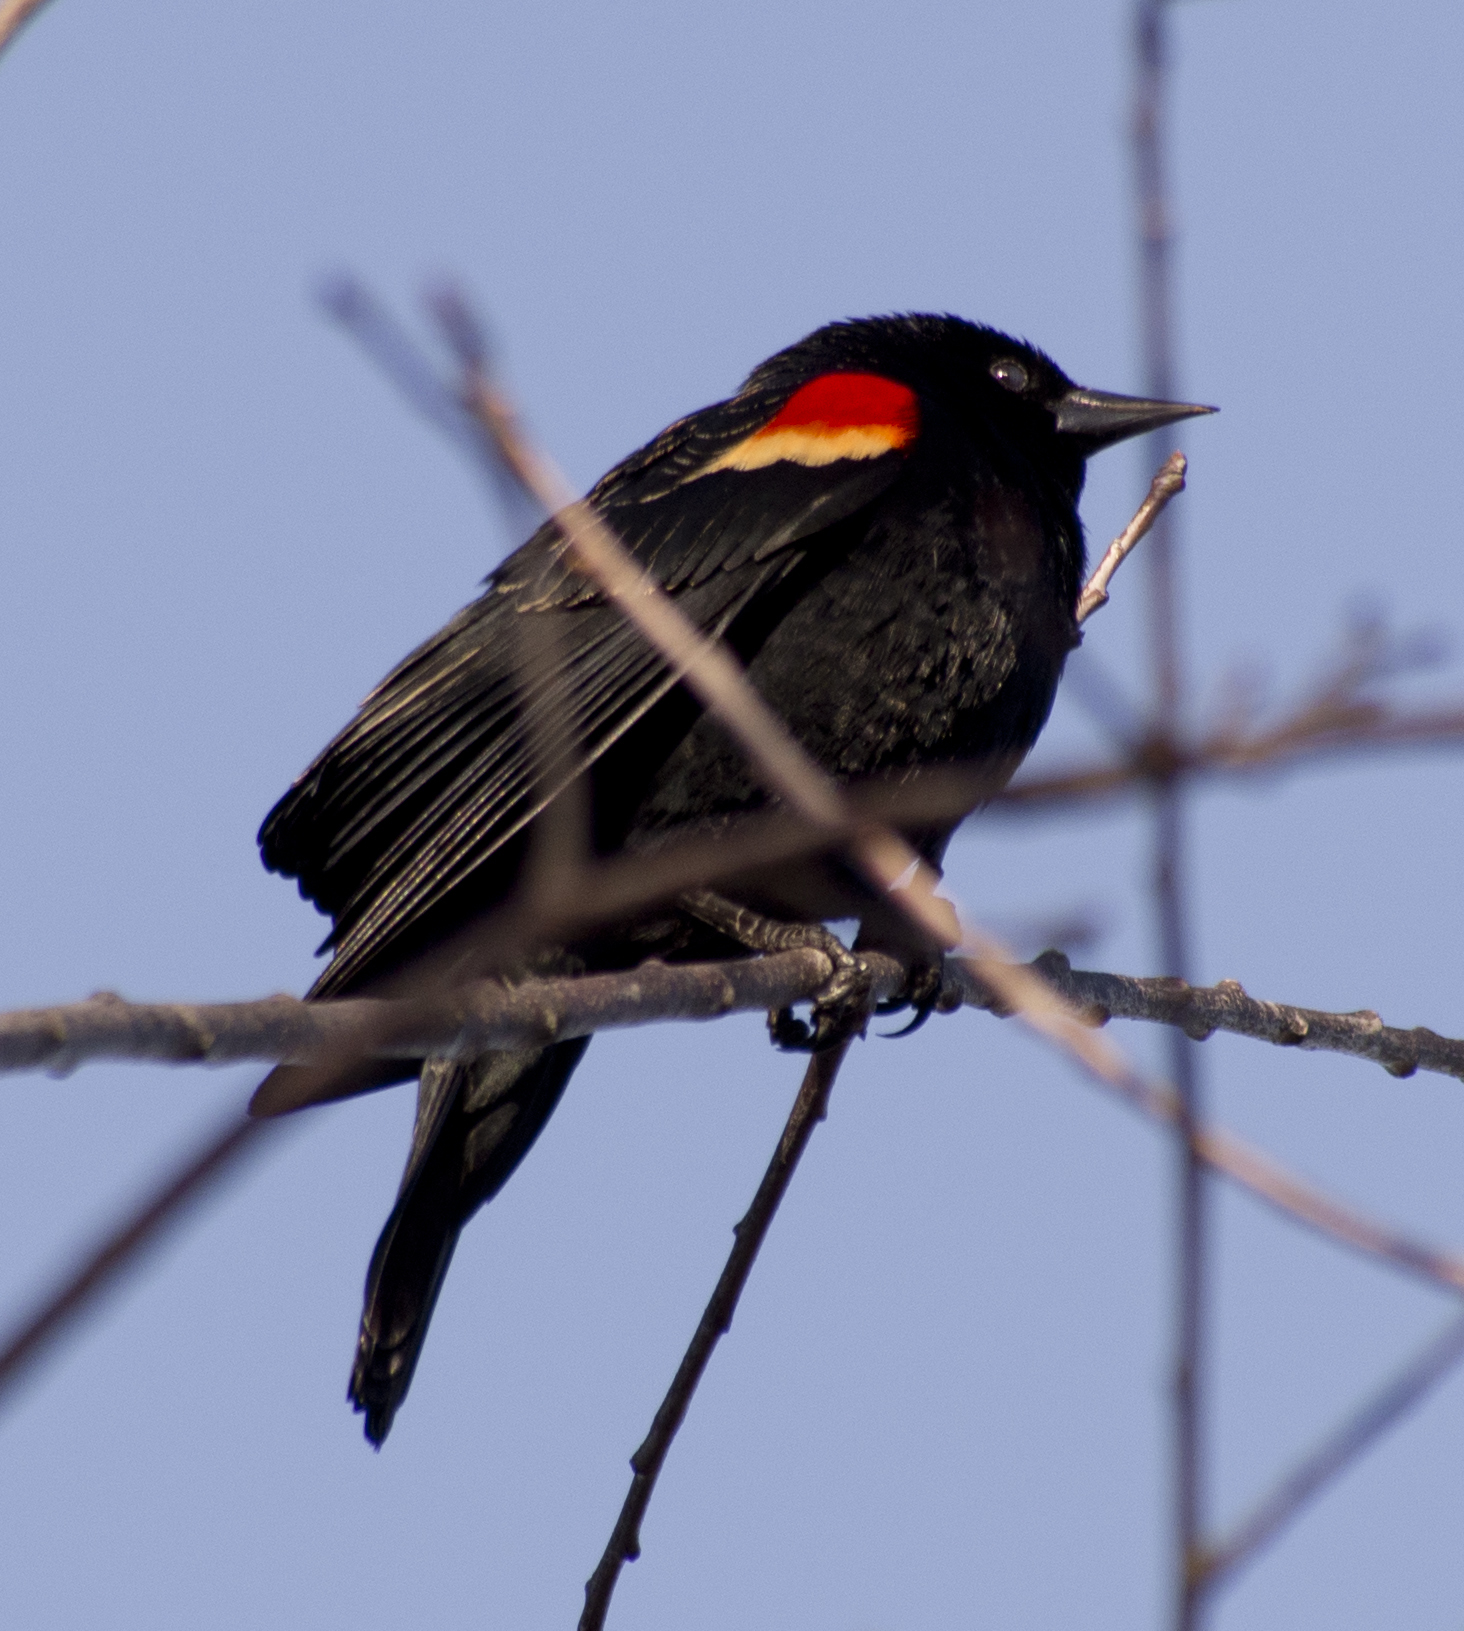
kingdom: Animalia
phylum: Chordata
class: Aves
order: Passeriformes
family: Icteridae
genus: Agelaius
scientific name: Agelaius phoeniceus
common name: Red-winged blackbird
